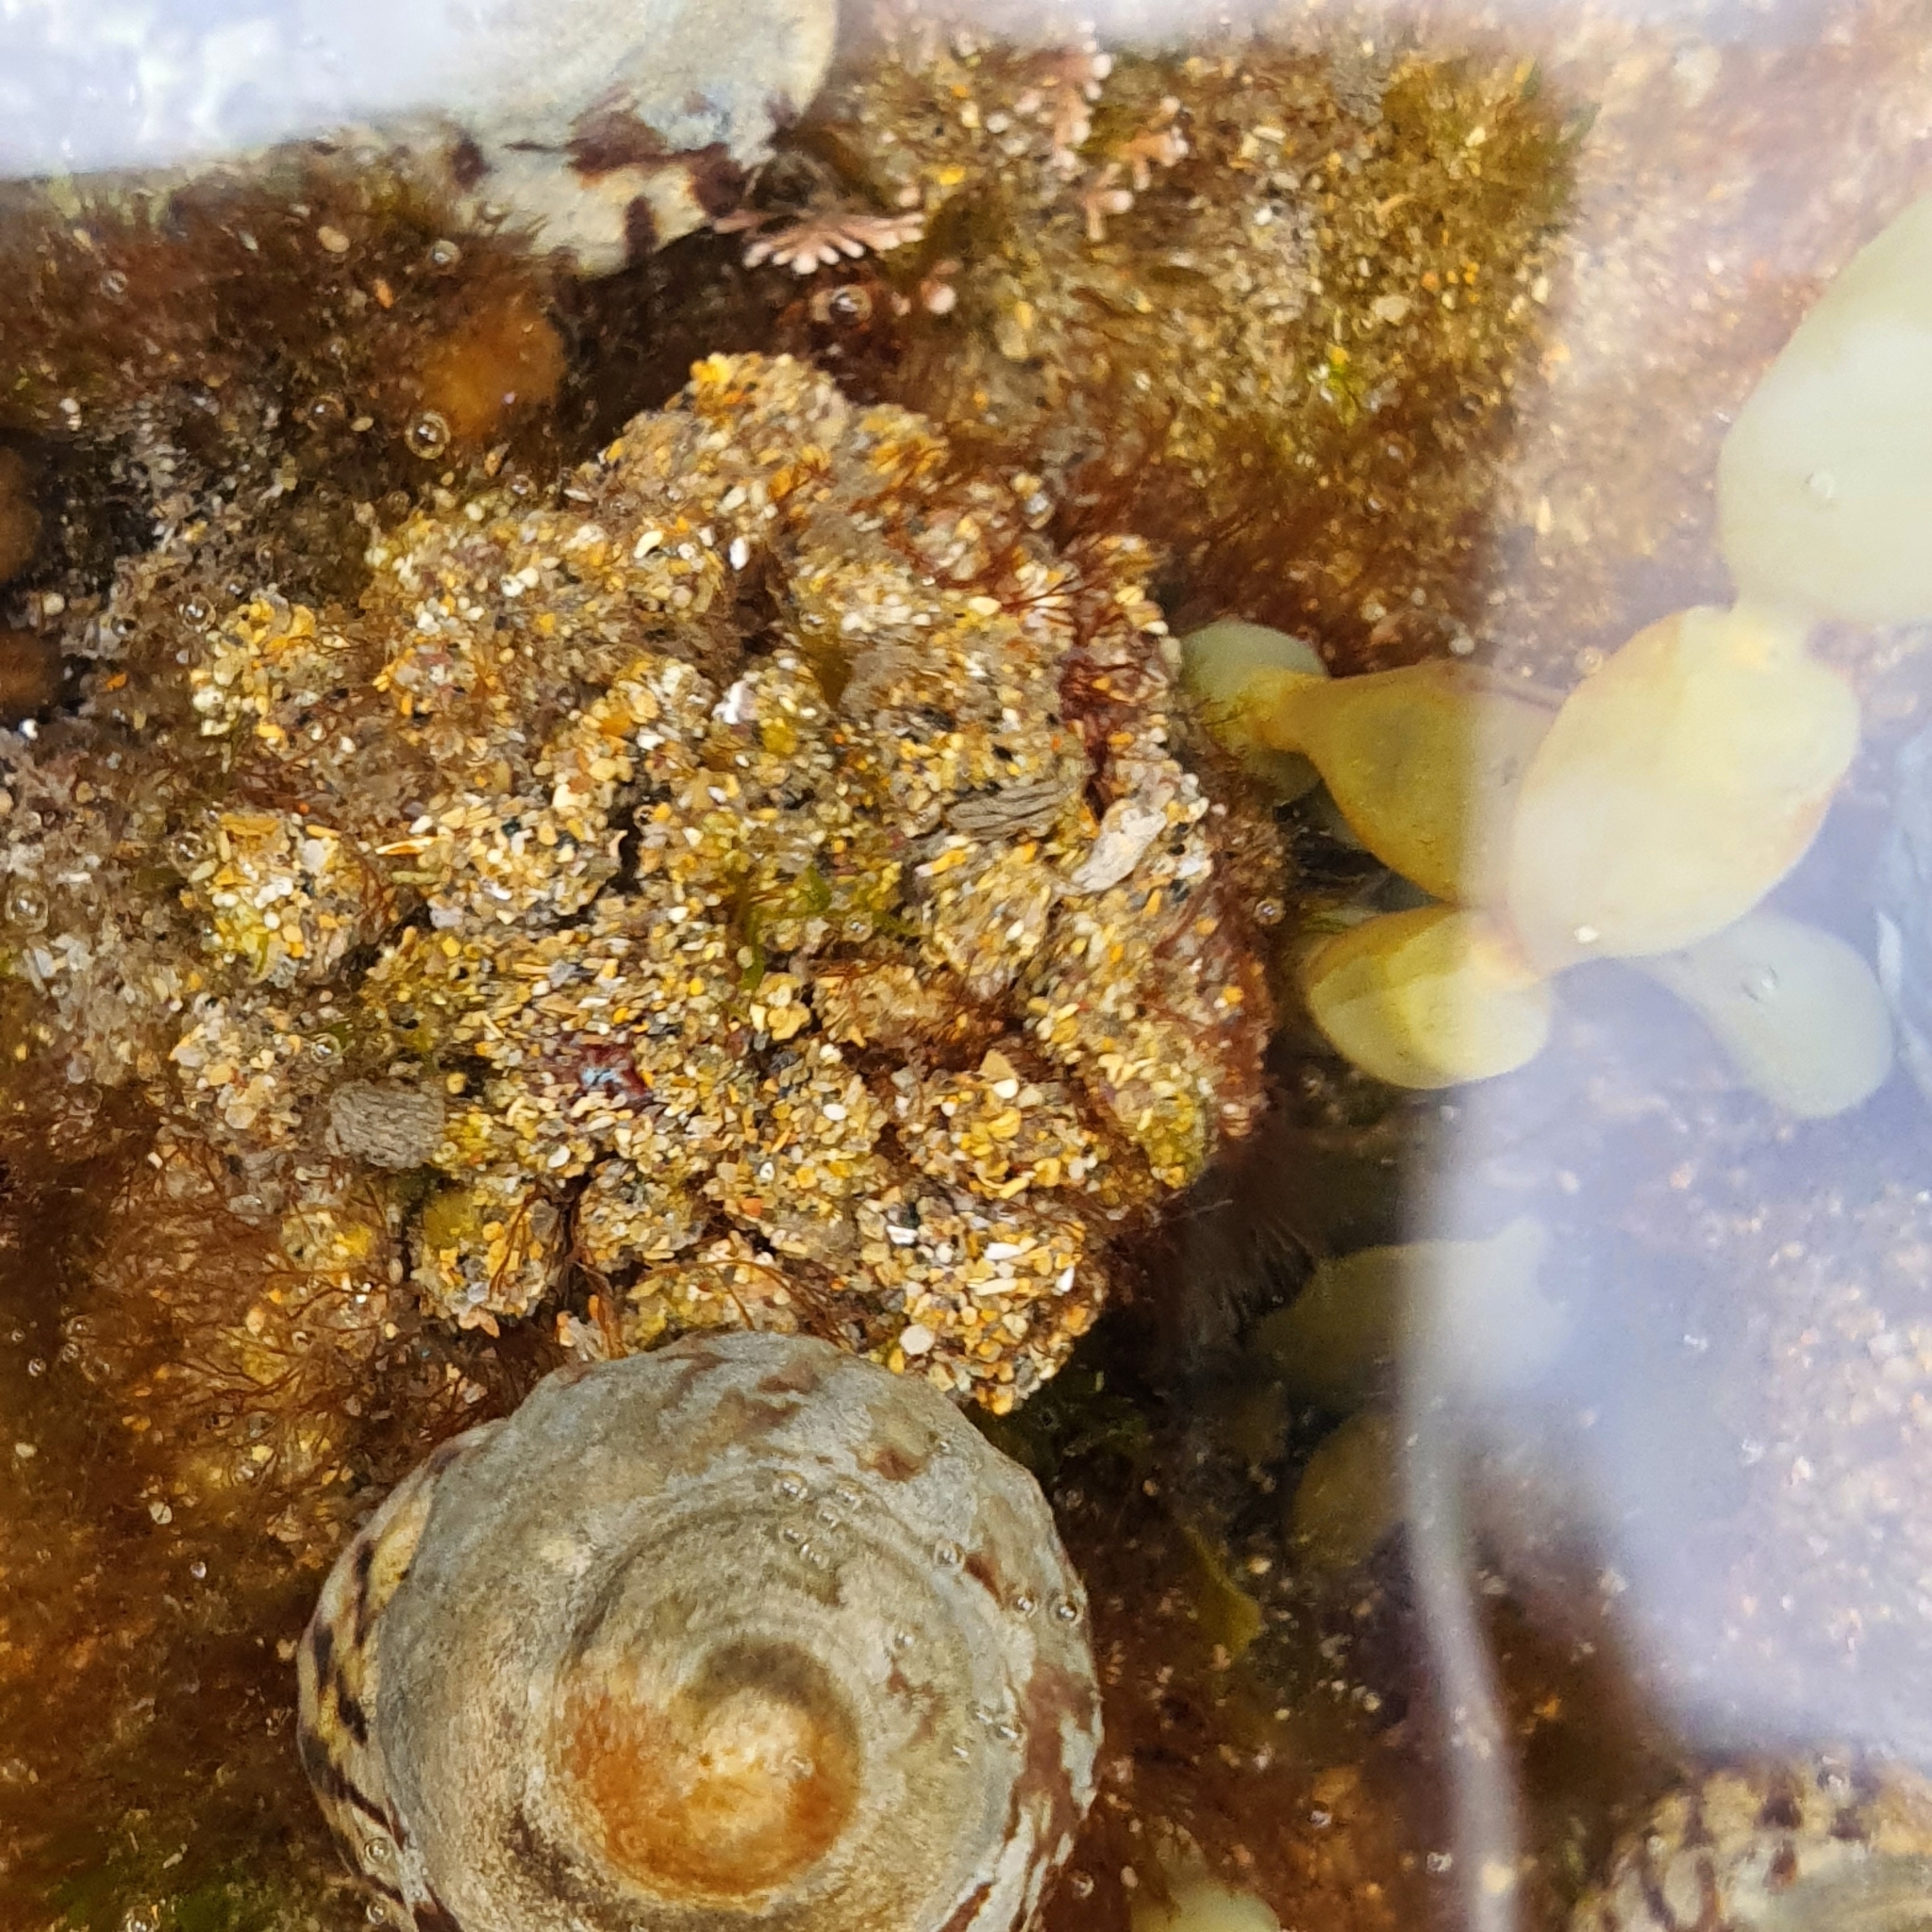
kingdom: Animalia
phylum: Chordata
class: Ascidiacea
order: Stolidobranchia
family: Pyuridae
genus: Pyura
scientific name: Pyura praeputialis
